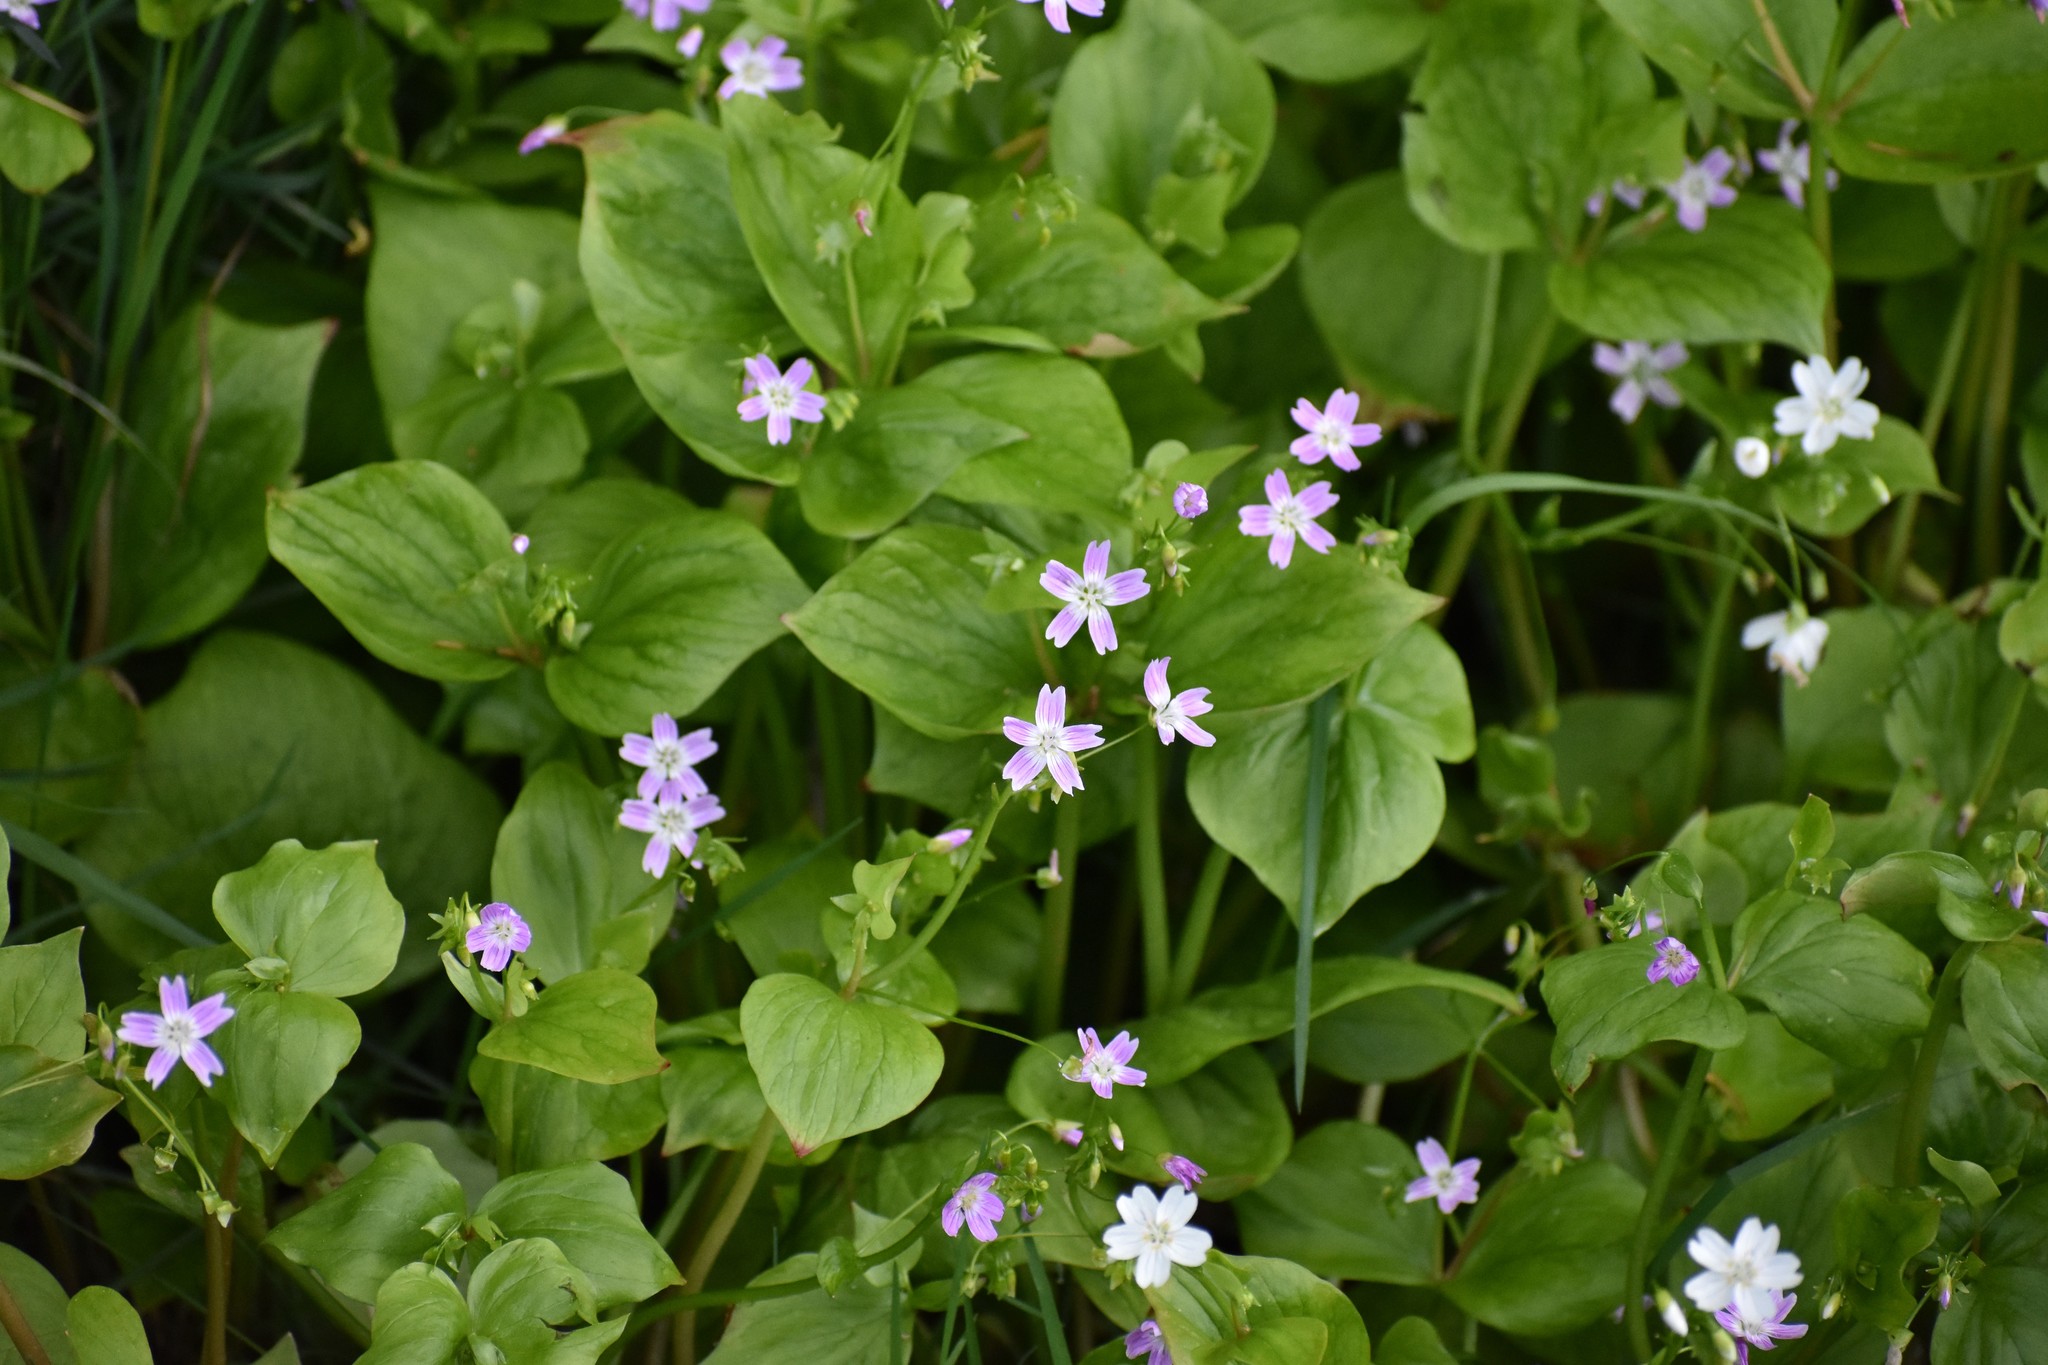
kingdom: Plantae
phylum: Tracheophyta
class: Magnoliopsida
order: Caryophyllales
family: Montiaceae
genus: Claytonia
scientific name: Claytonia sibirica
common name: Pink purslane
